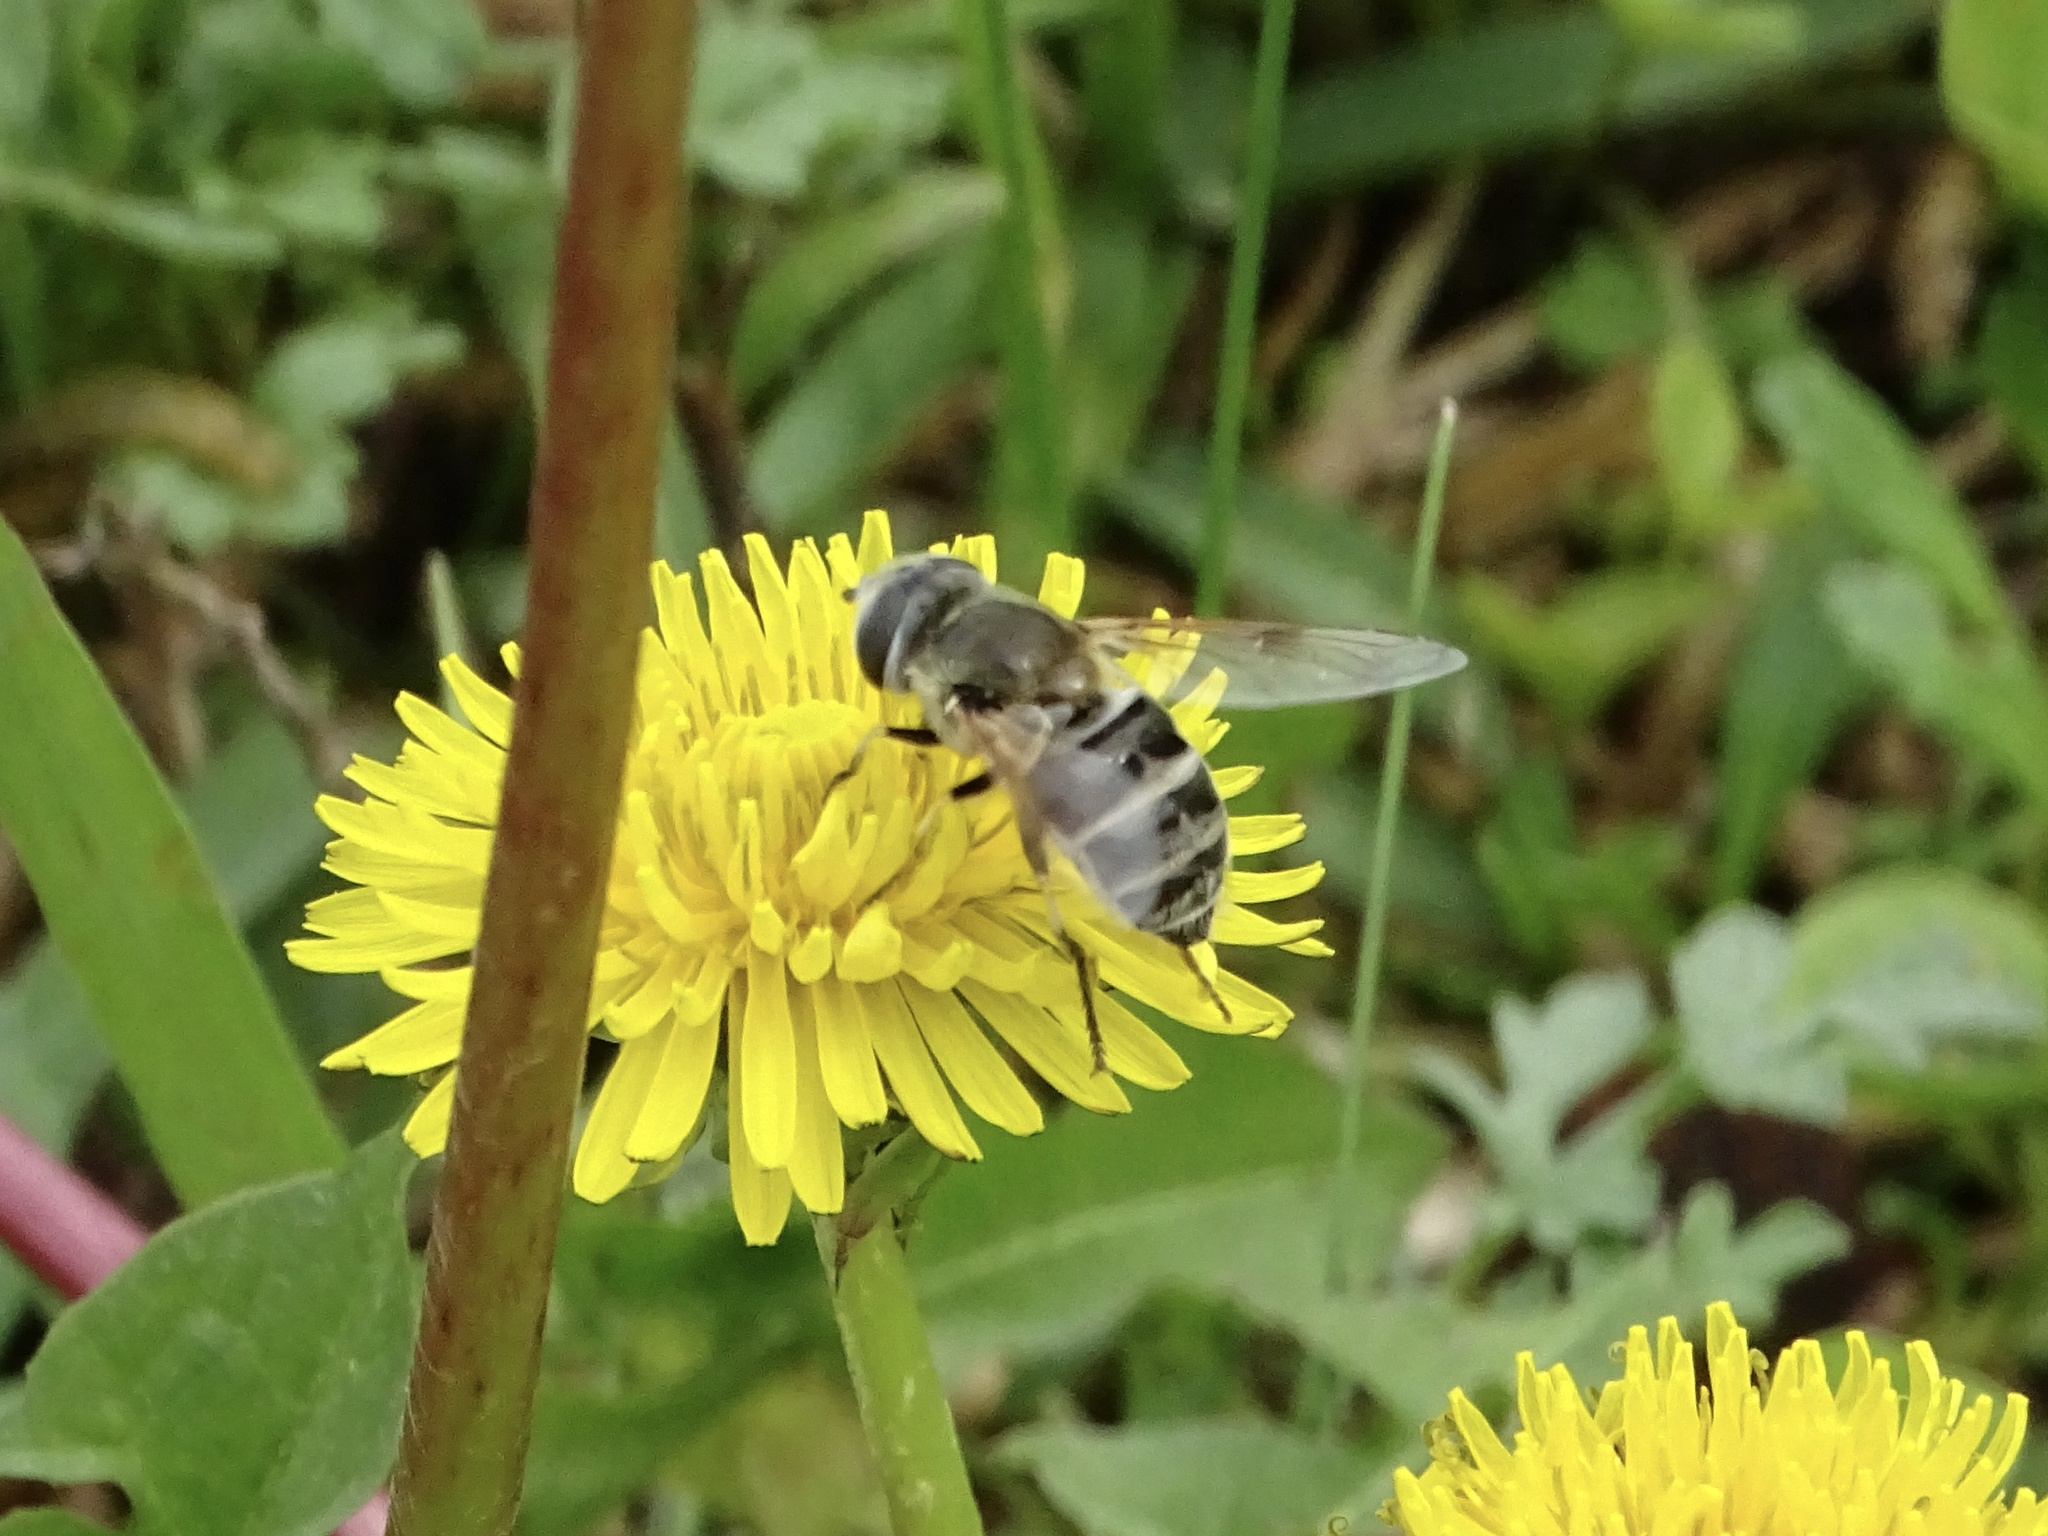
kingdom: Animalia
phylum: Arthropoda
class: Insecta
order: Diptera
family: Syrphidae
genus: Eristalis
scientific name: Eristalis stipator
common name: Yellow-shouldered drone fly
